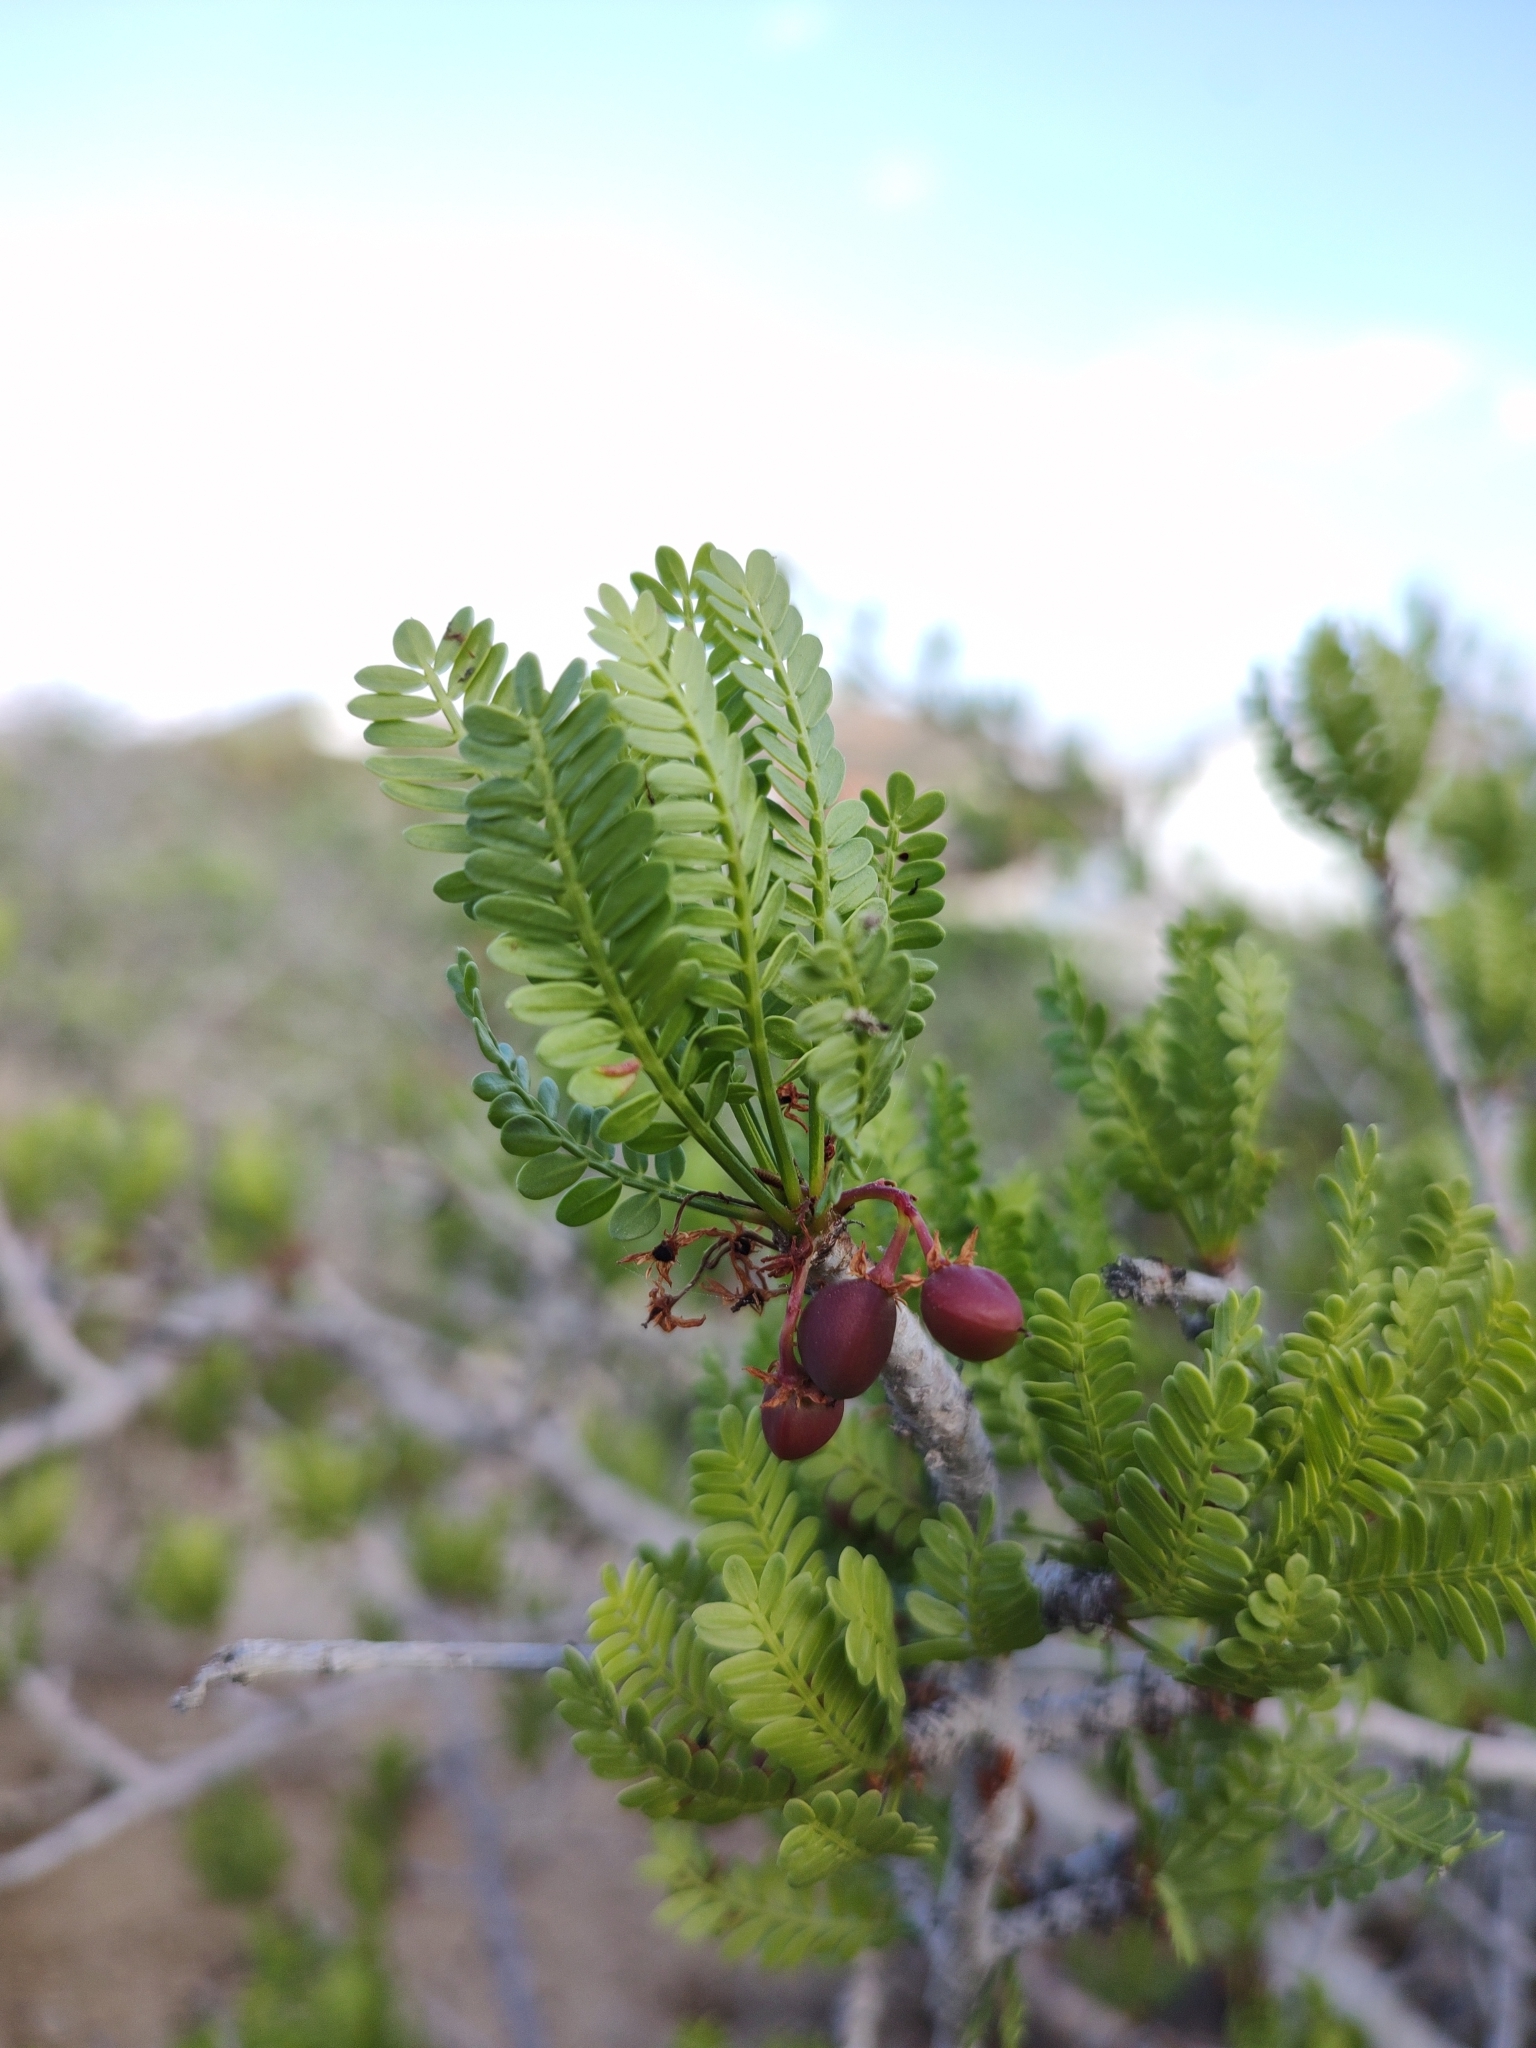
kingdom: Plantae
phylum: Tracheophyta
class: Magnoliopsida
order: Sapindales
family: Burseraceae
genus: Bursera
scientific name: Bursera microphylla
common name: Elephant tree
